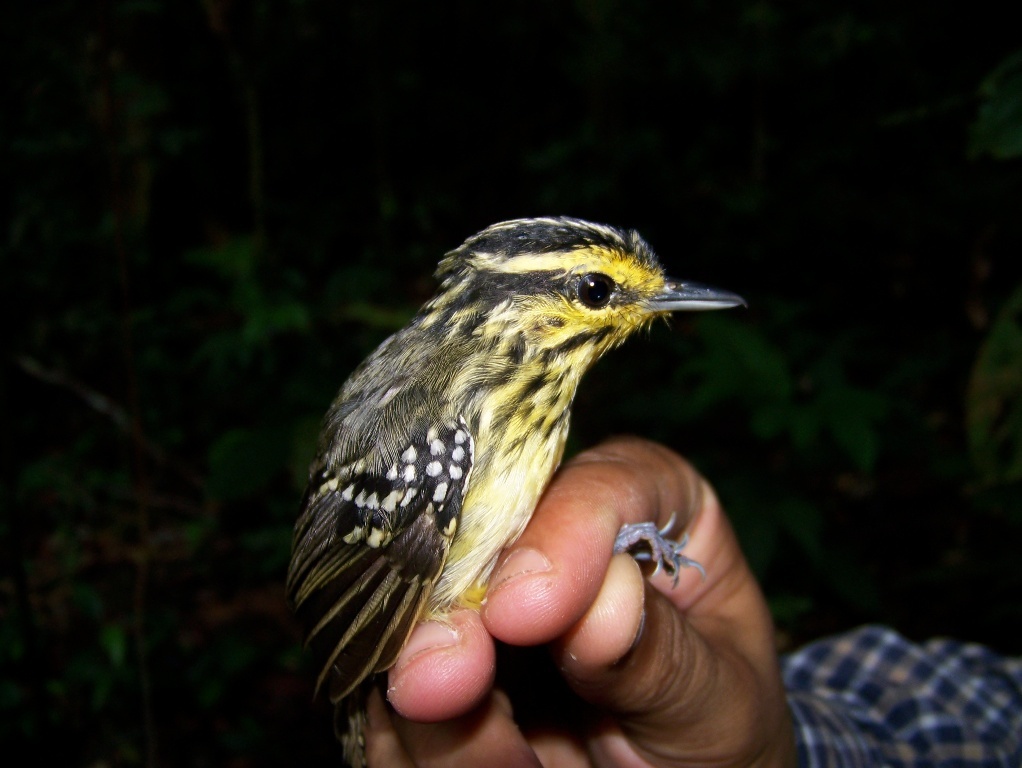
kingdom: Animalia
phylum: Chordata
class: Aves
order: Passeriformes
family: Thamnophilidae
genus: Hypocnemis
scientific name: Hypocnemis hypoxantha
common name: Yellow-browed antbird
